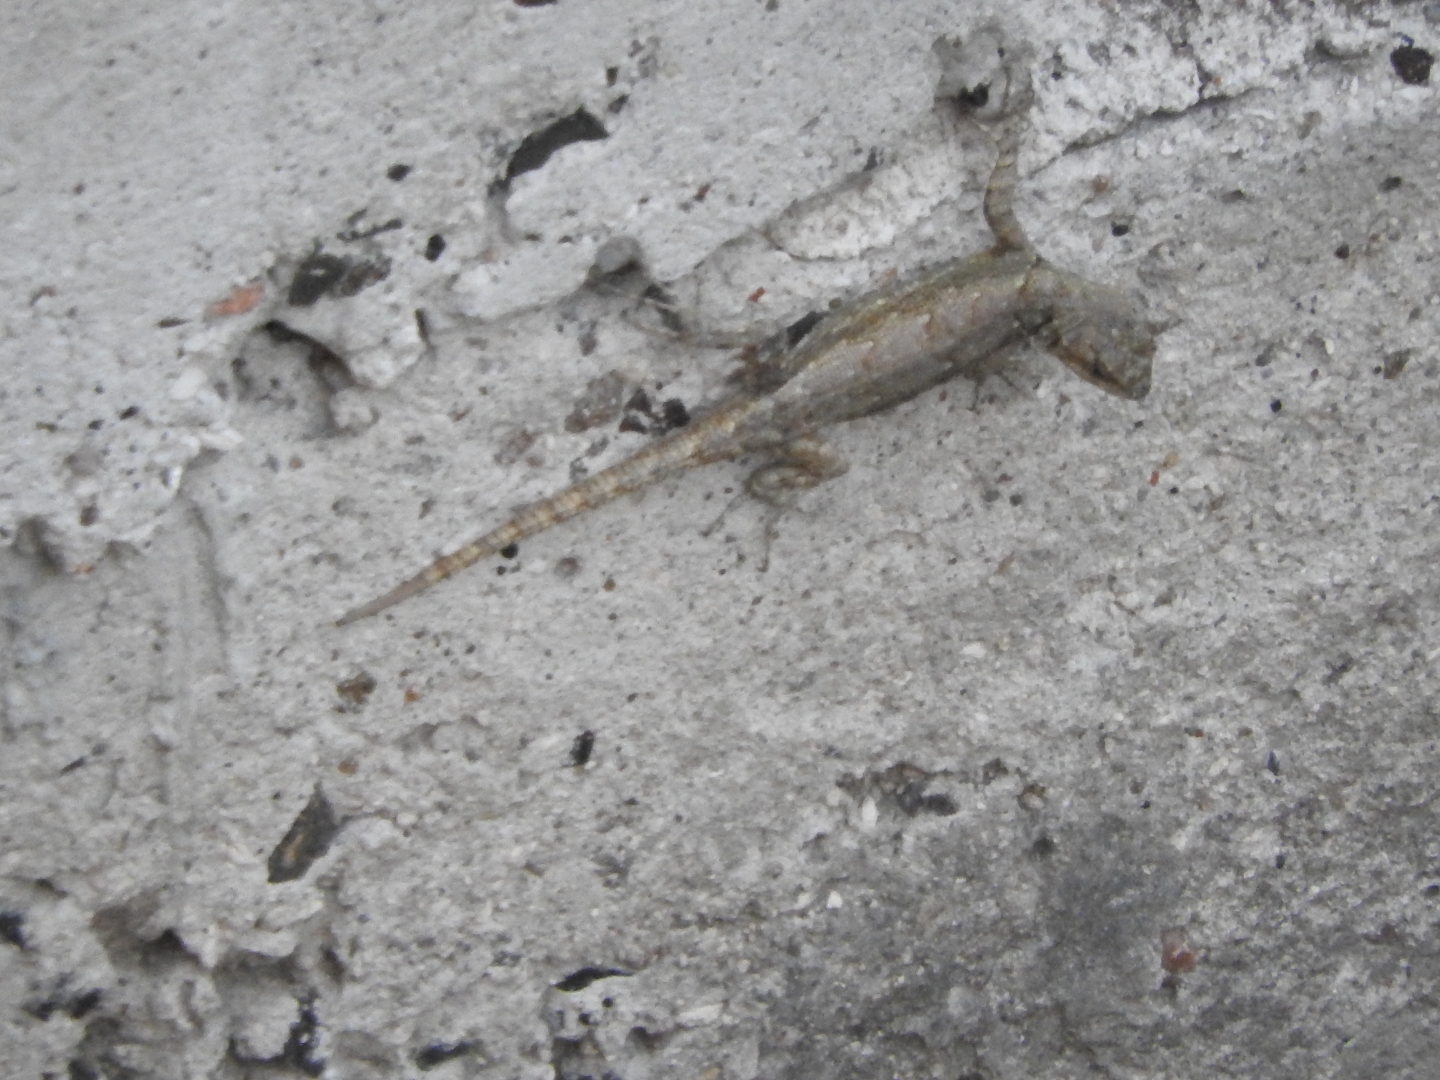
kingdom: Animalia
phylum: Chordata
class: Squamata
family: Phrynosomatidae
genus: Sceloporus
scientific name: Sceloporus grammicus
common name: Mesquite lizard
